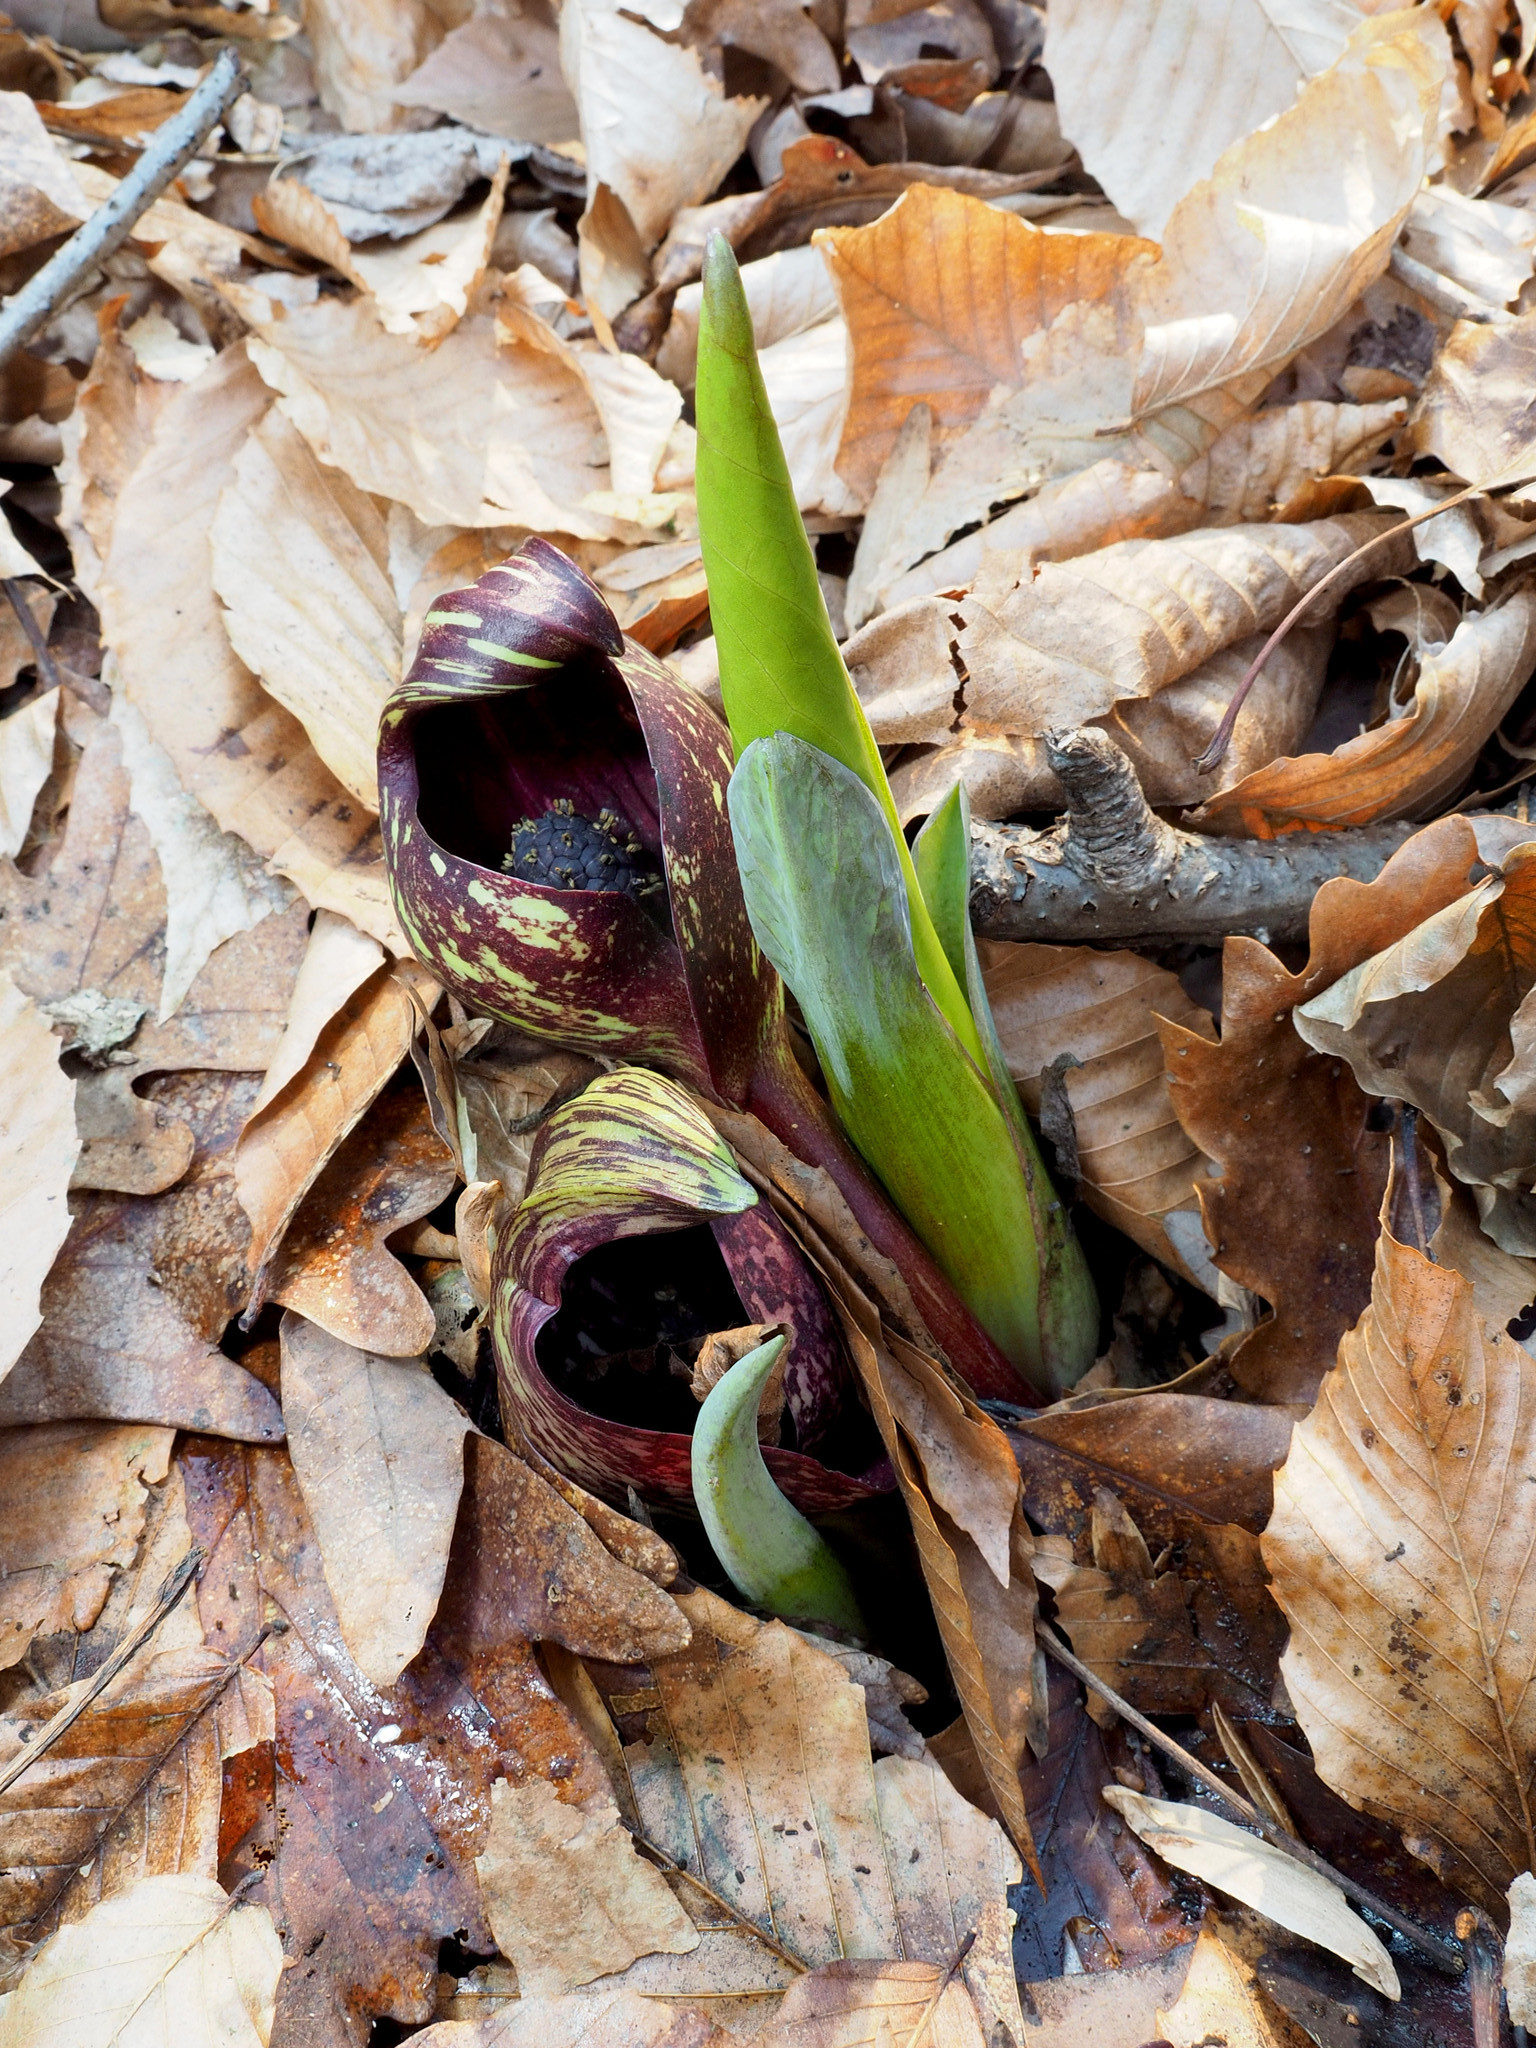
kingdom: Plantae
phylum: Tracheophyta
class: Liliopsida
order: Alismatales
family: Araceae
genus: Symplocarpus
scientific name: Symplocarpus foetidus
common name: Eastern skunk cabbage
